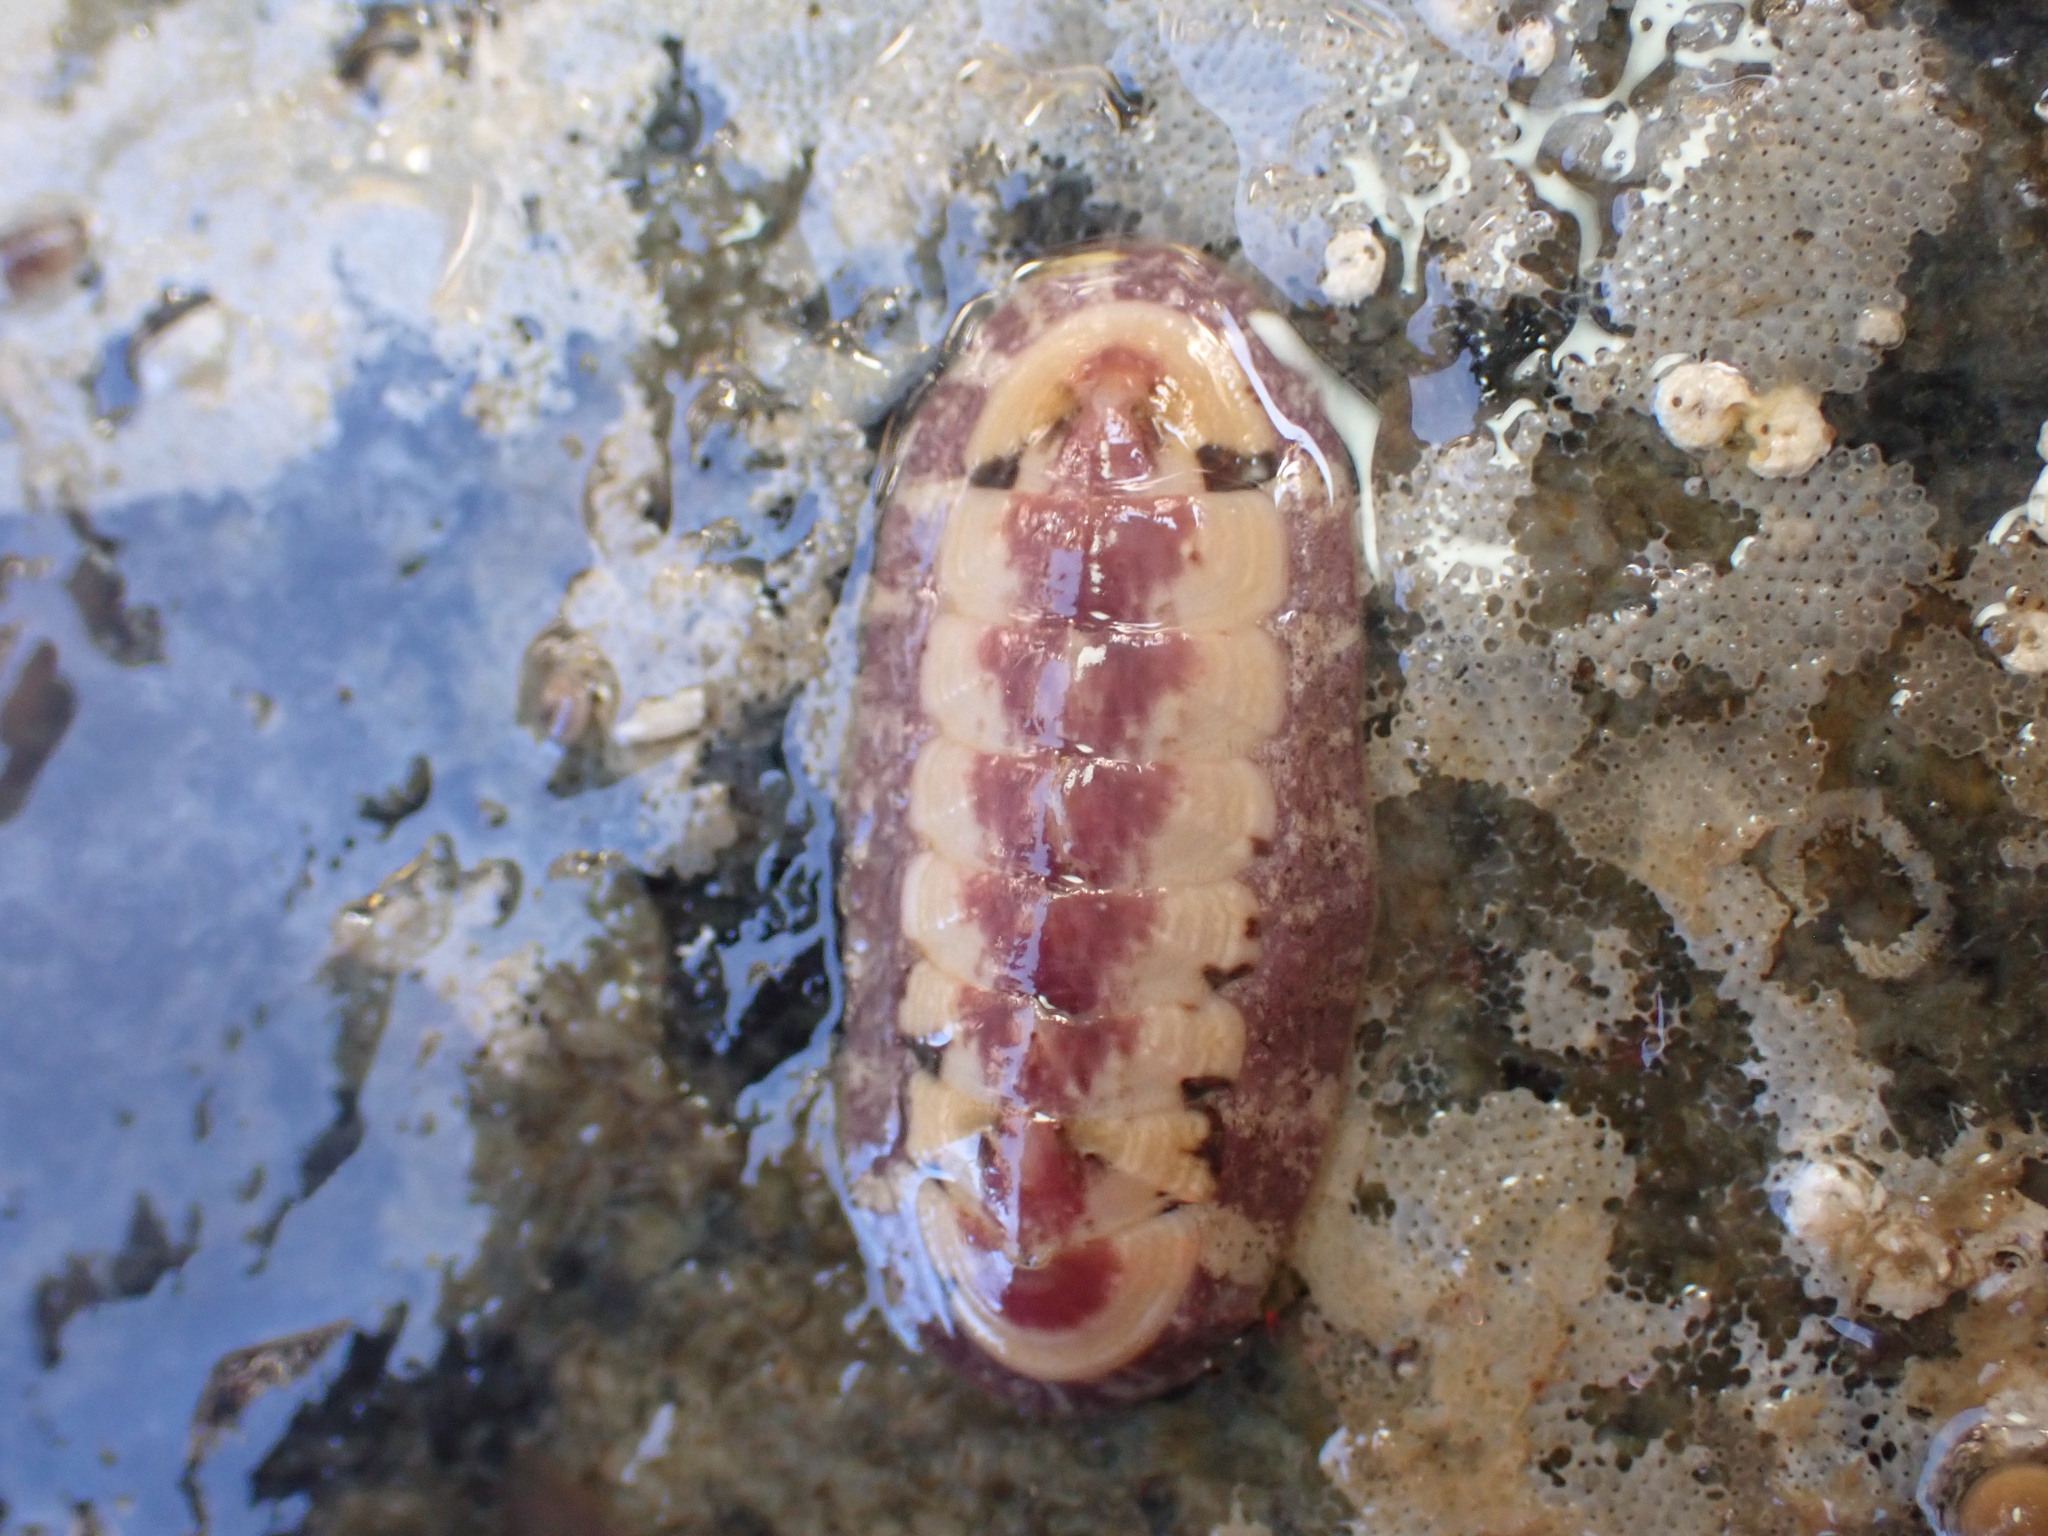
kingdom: Animalia
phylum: Mollusca
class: Polyplacophora
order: Chitonida
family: Ischnochitonidae
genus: Stenoplax
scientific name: Stenoplax fallax
